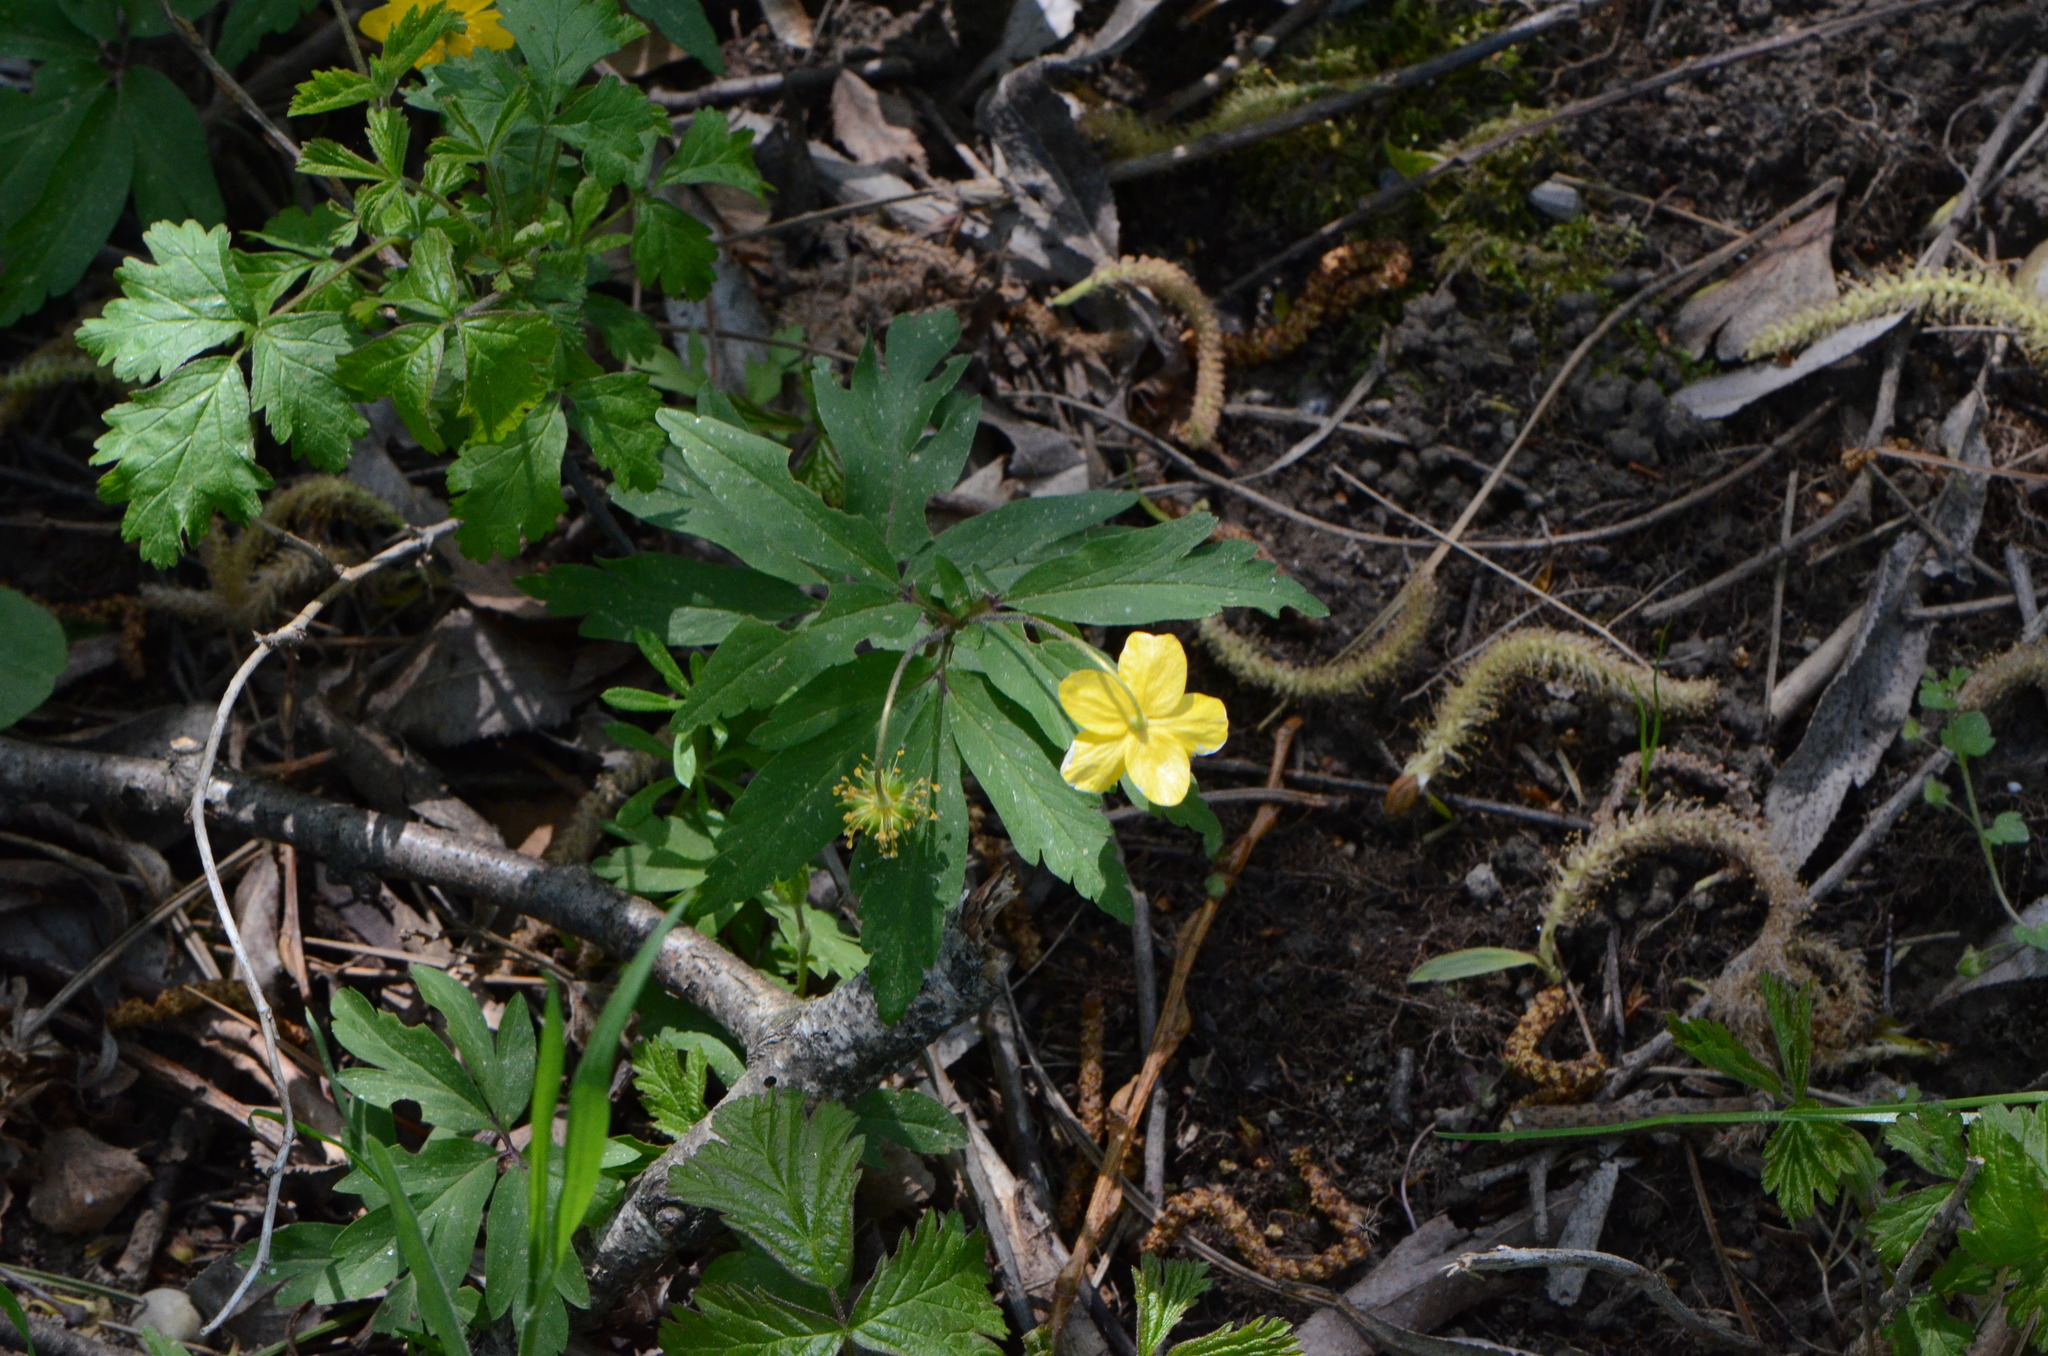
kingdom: Plantae
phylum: Tracheophyta
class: Magnoliopsida
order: Ranunculales
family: Ranunculaceae
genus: Anemone
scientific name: Anemone ranunculoides
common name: Yellow anemone
